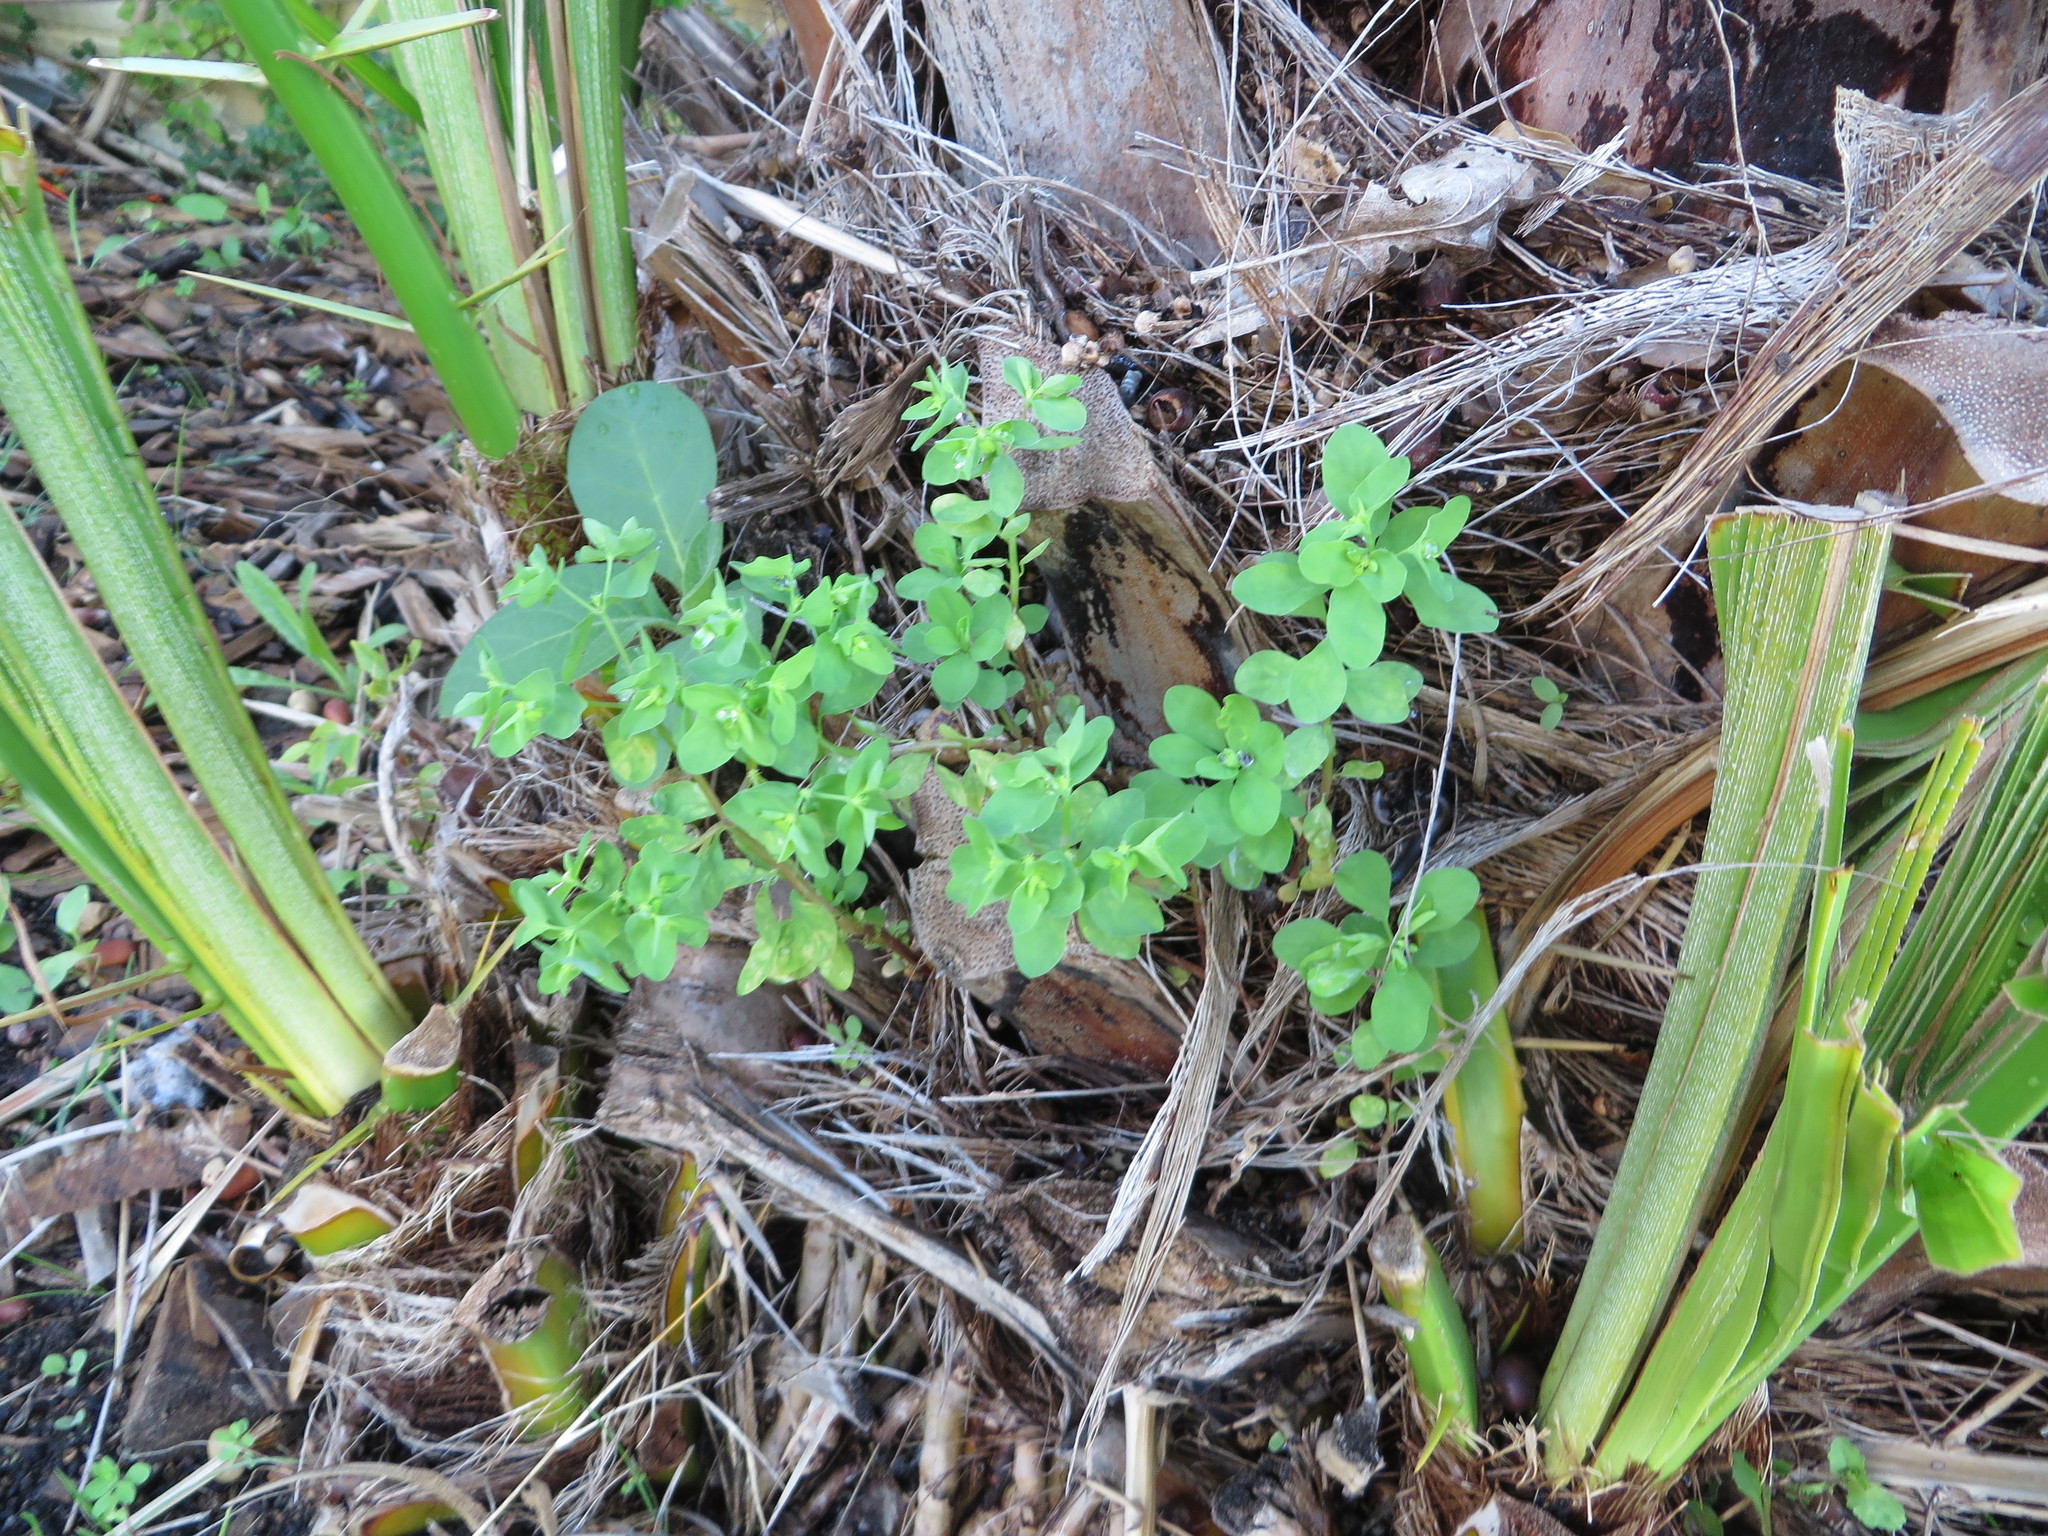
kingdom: Plantae
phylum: Tracheophyta
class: Magnoliopsida
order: Malpighiales
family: Euphorbiaceae
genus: Euphorbia
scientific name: Euphorbia peplus
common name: Petty spurge
